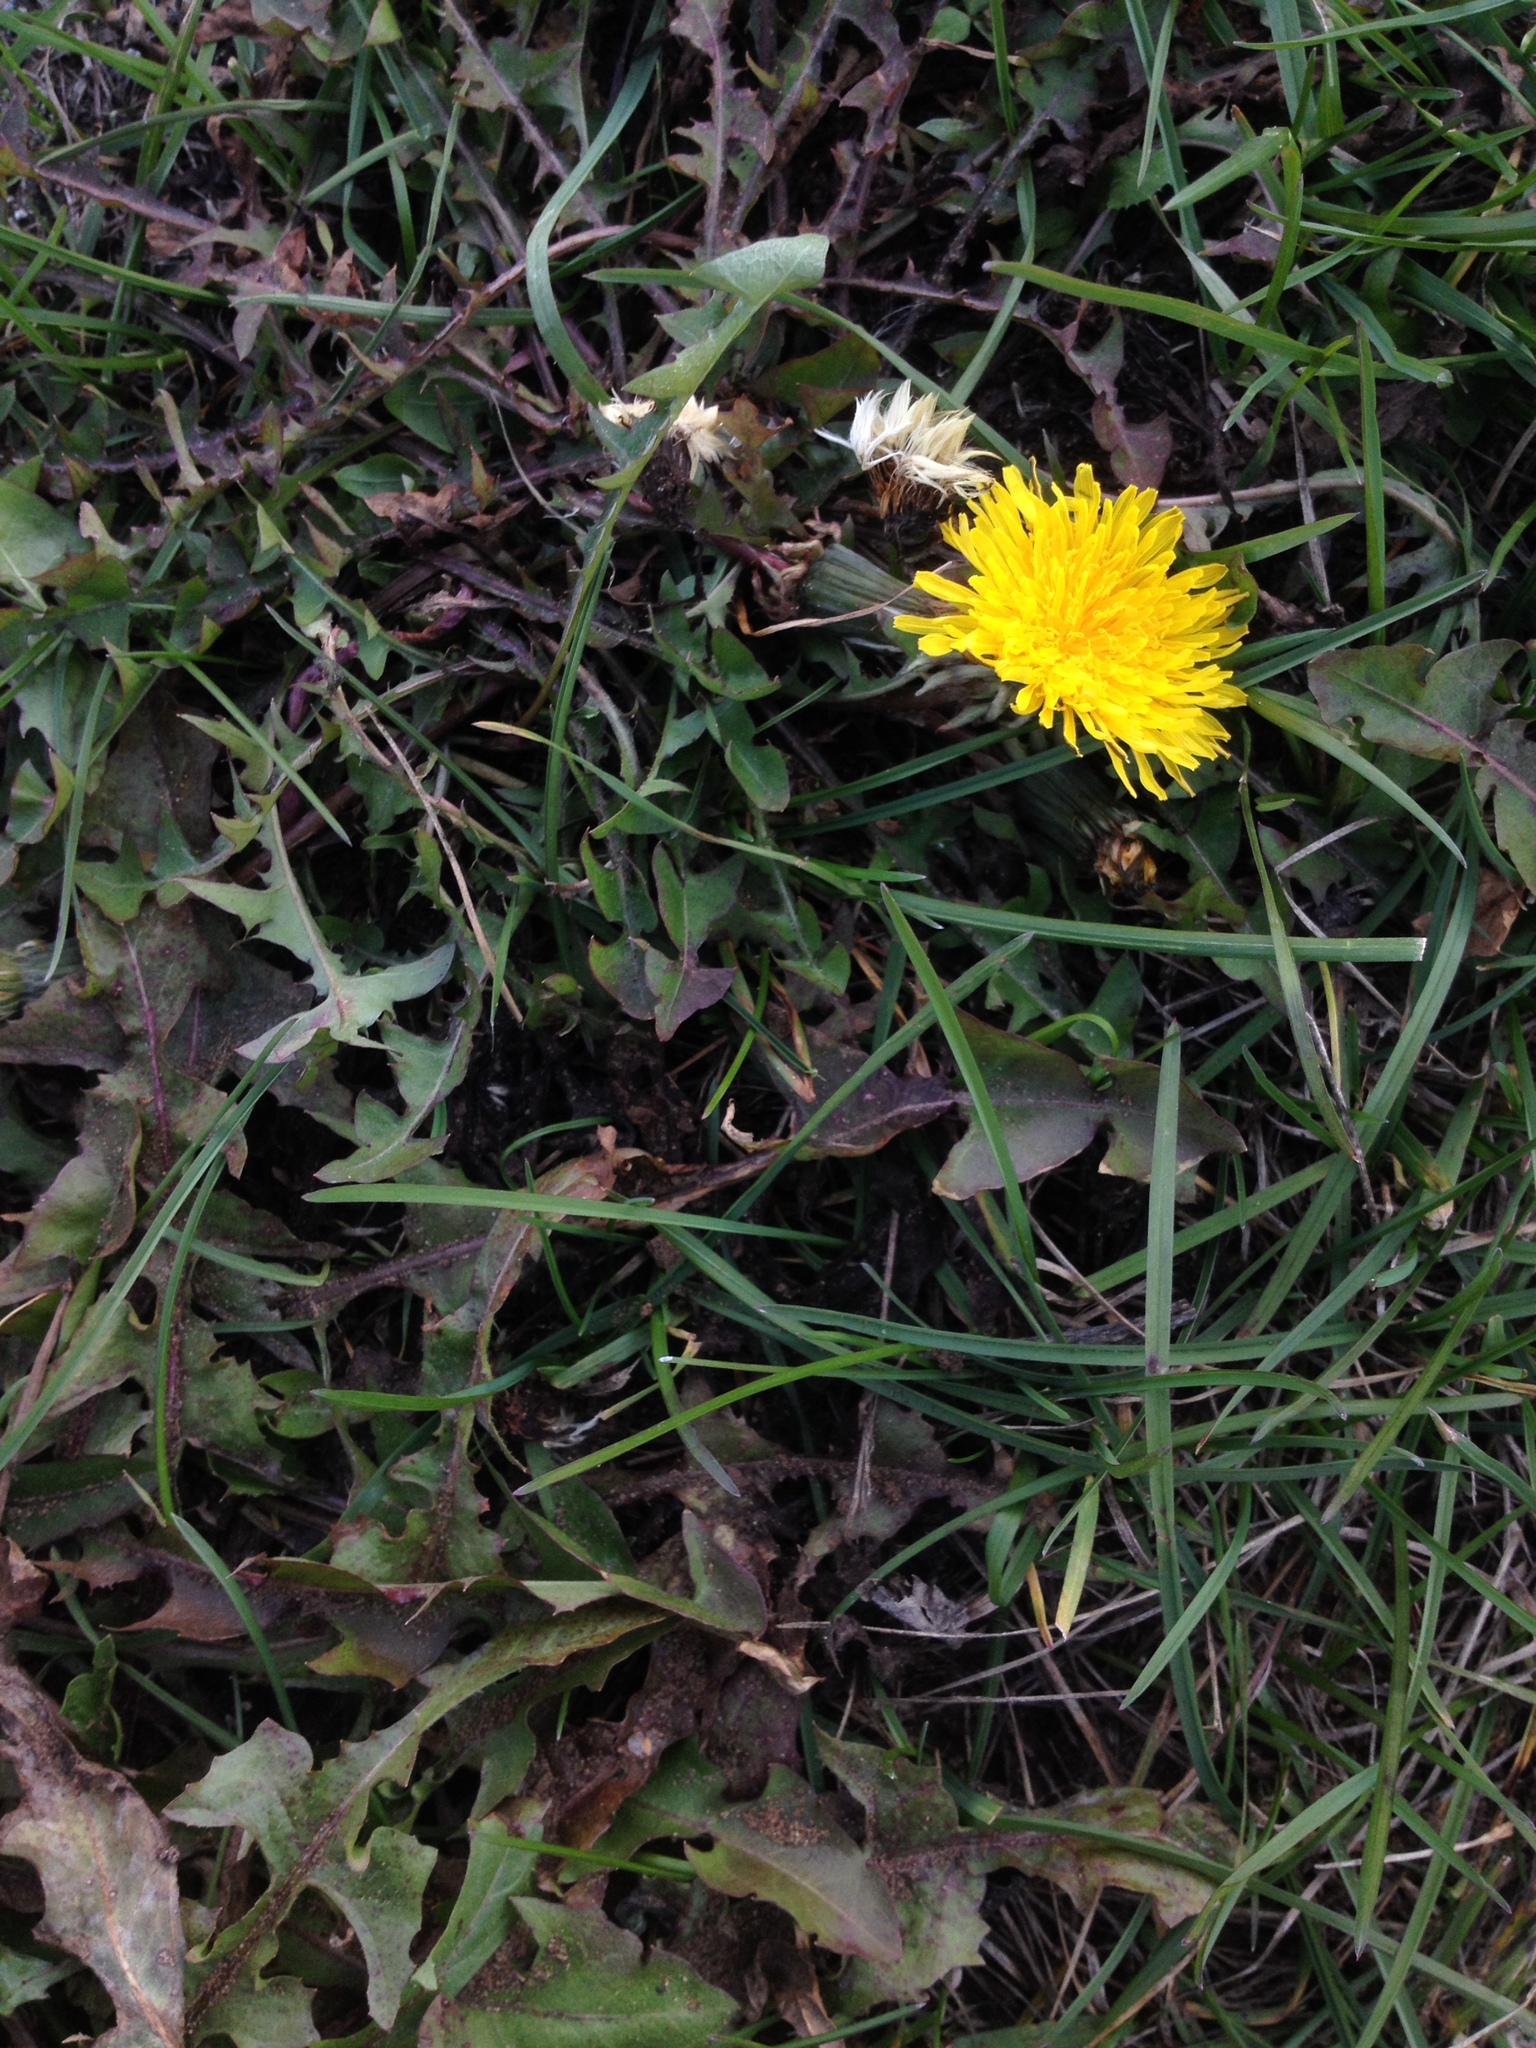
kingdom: Plantae
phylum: Tracheophyta
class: Magnoliopsida
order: Asterales
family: Asteraceae
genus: Taraxacum
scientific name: Taraxacum officinale
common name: Common dandelion
